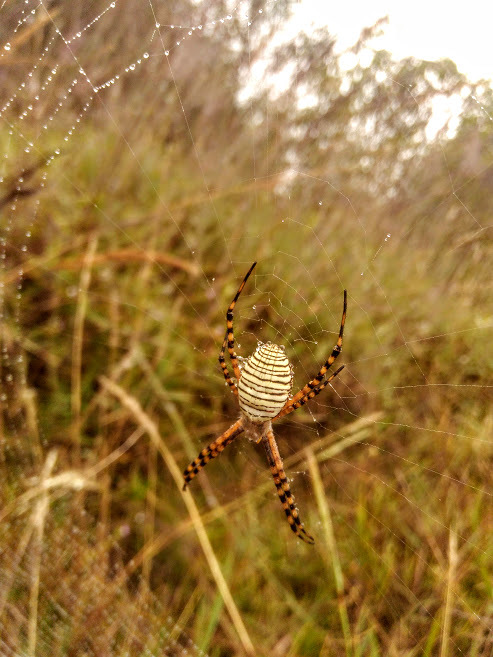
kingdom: Animalia
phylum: Arthropoda
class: Arachnida
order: Araneae
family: Araneidae
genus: Argiope
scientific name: Argiope trifasciata
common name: Banded garden spider
